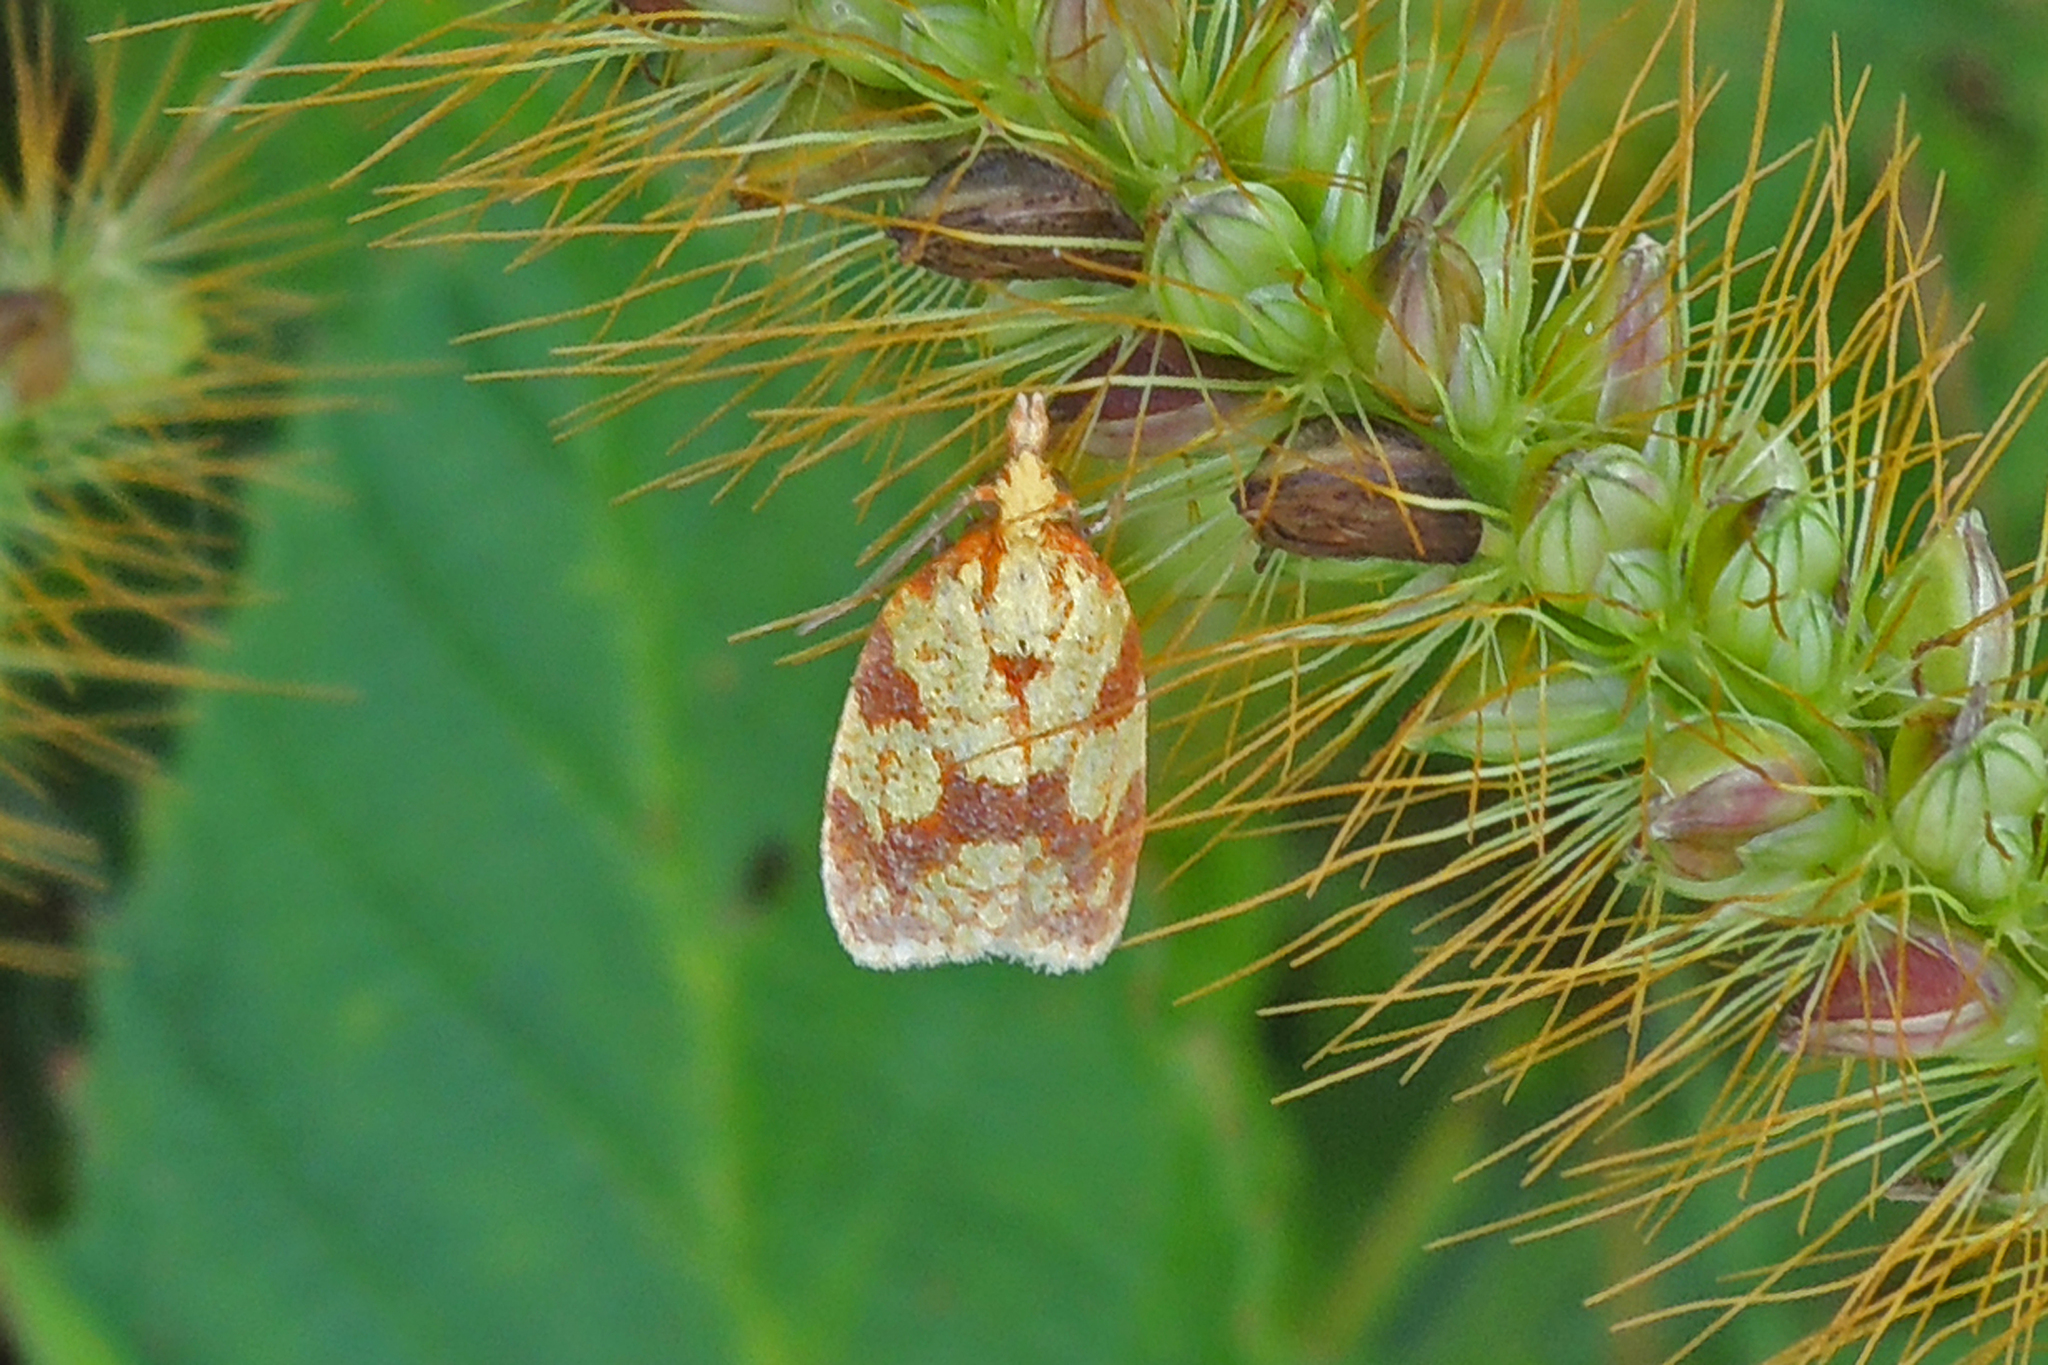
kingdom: Animalia
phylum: Arthropoda
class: Insecta
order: Lepidoptera
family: Tortricidae
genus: Sparganothis
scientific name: Sparganothis sulfureana
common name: Sparganothis fruitworm moth
